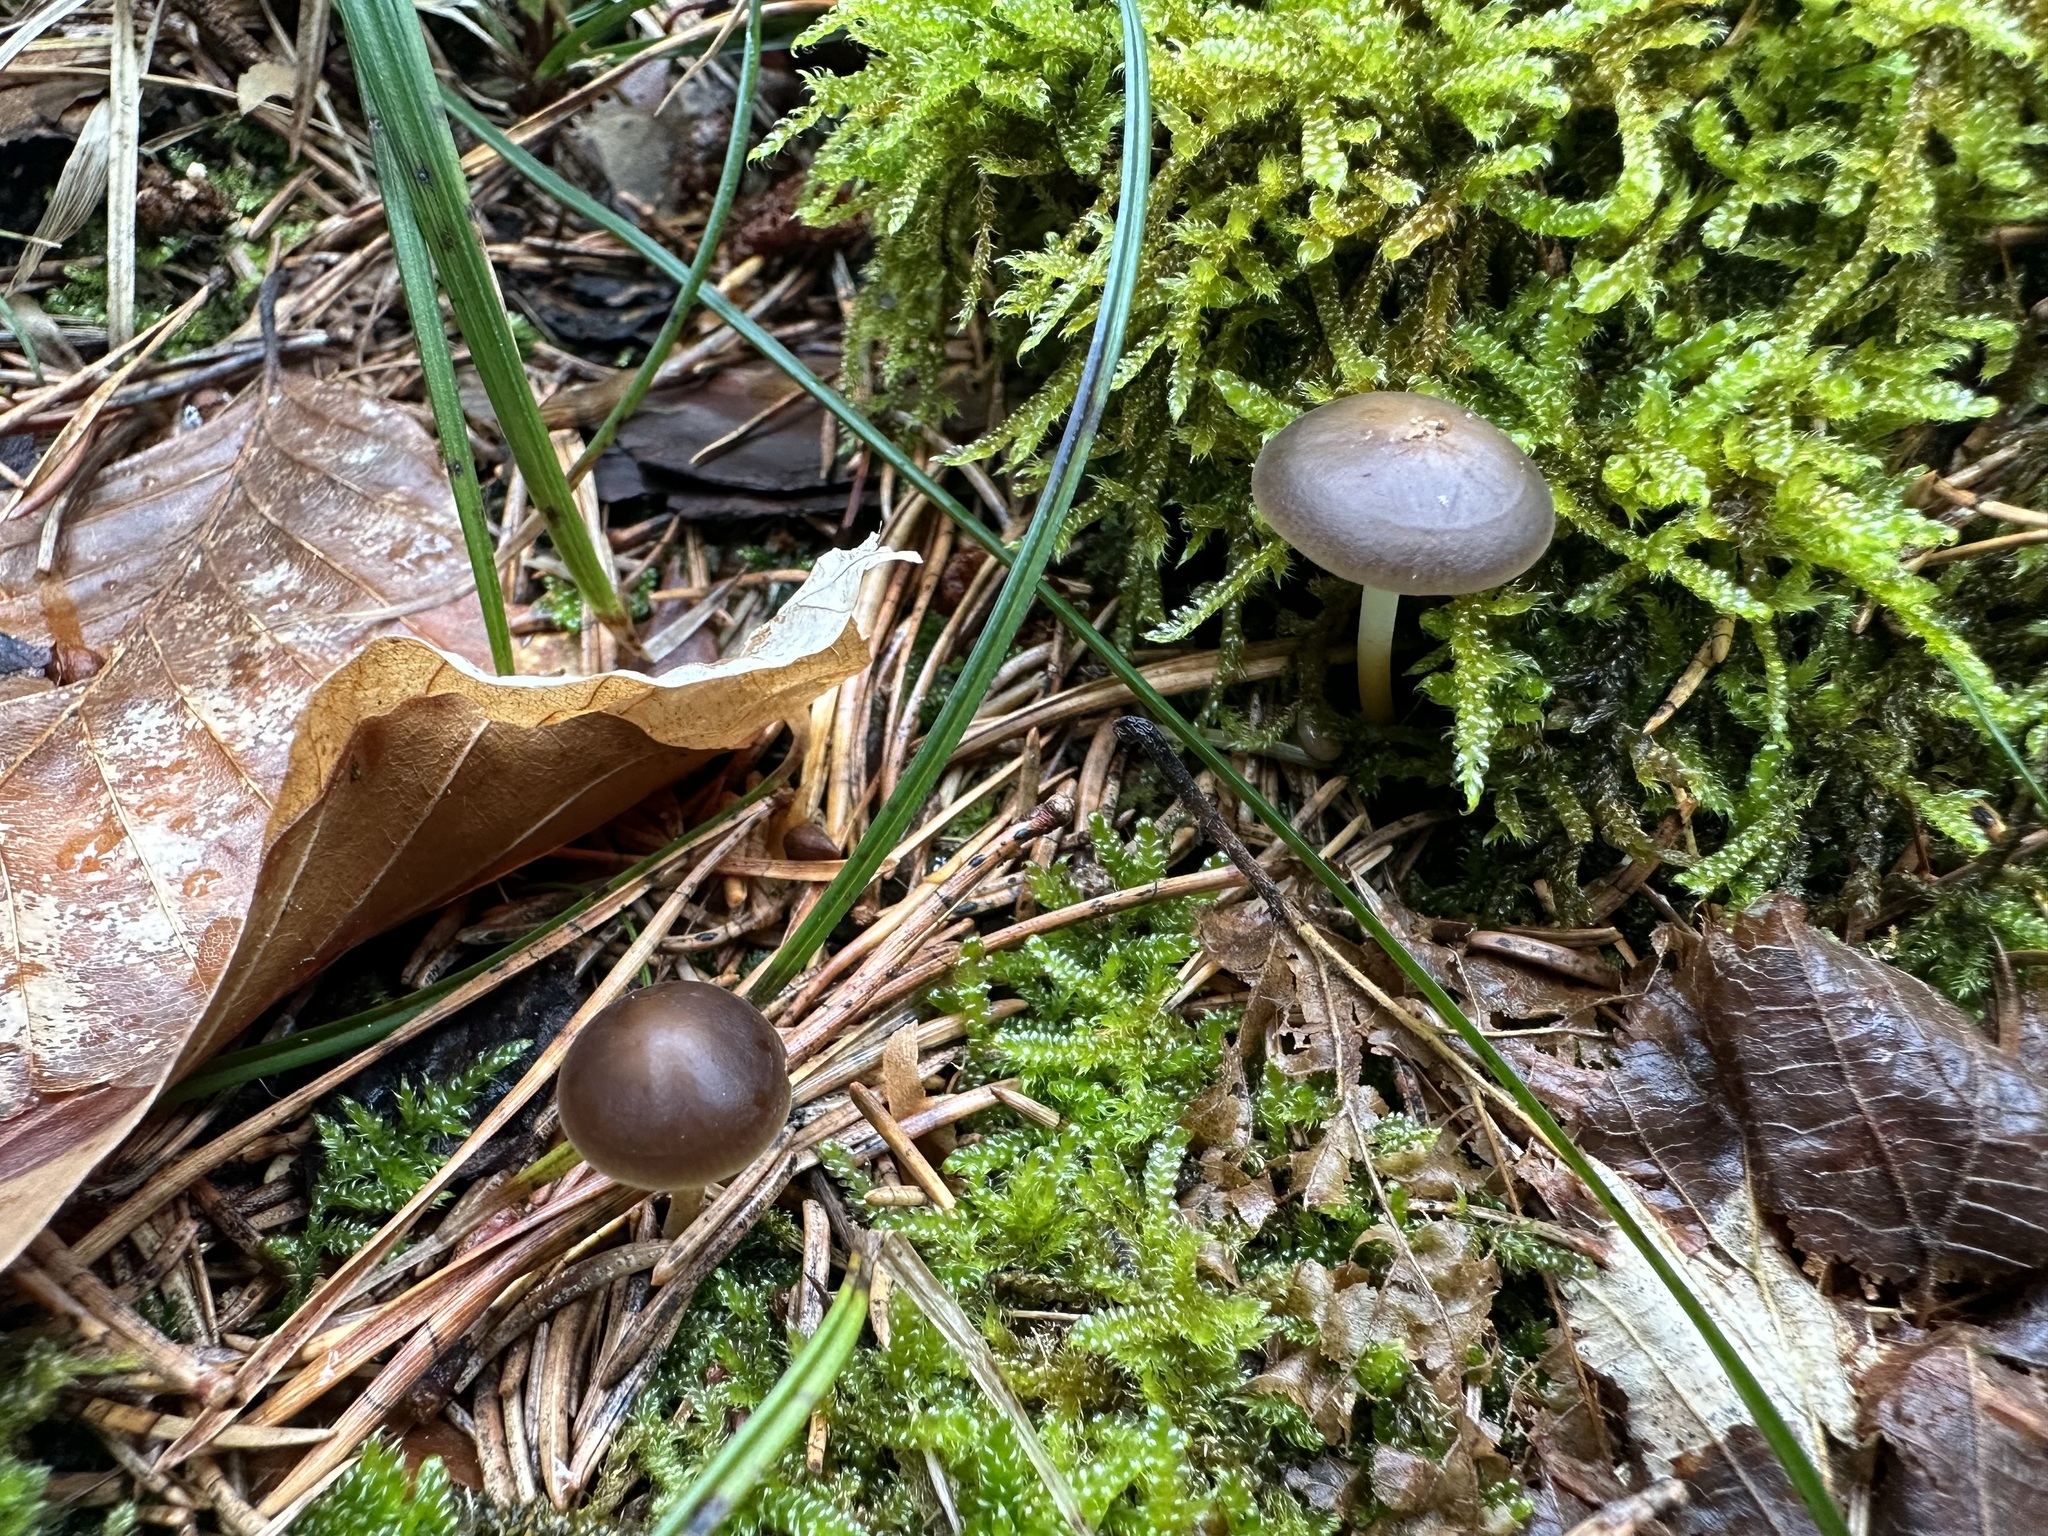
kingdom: Fungi
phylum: Basidiomycota
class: Agaricomycetes
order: Agaricales
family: Physalacriaceae
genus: Strobilurus
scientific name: Strobilurus esculentus
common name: Sprucecone cap
